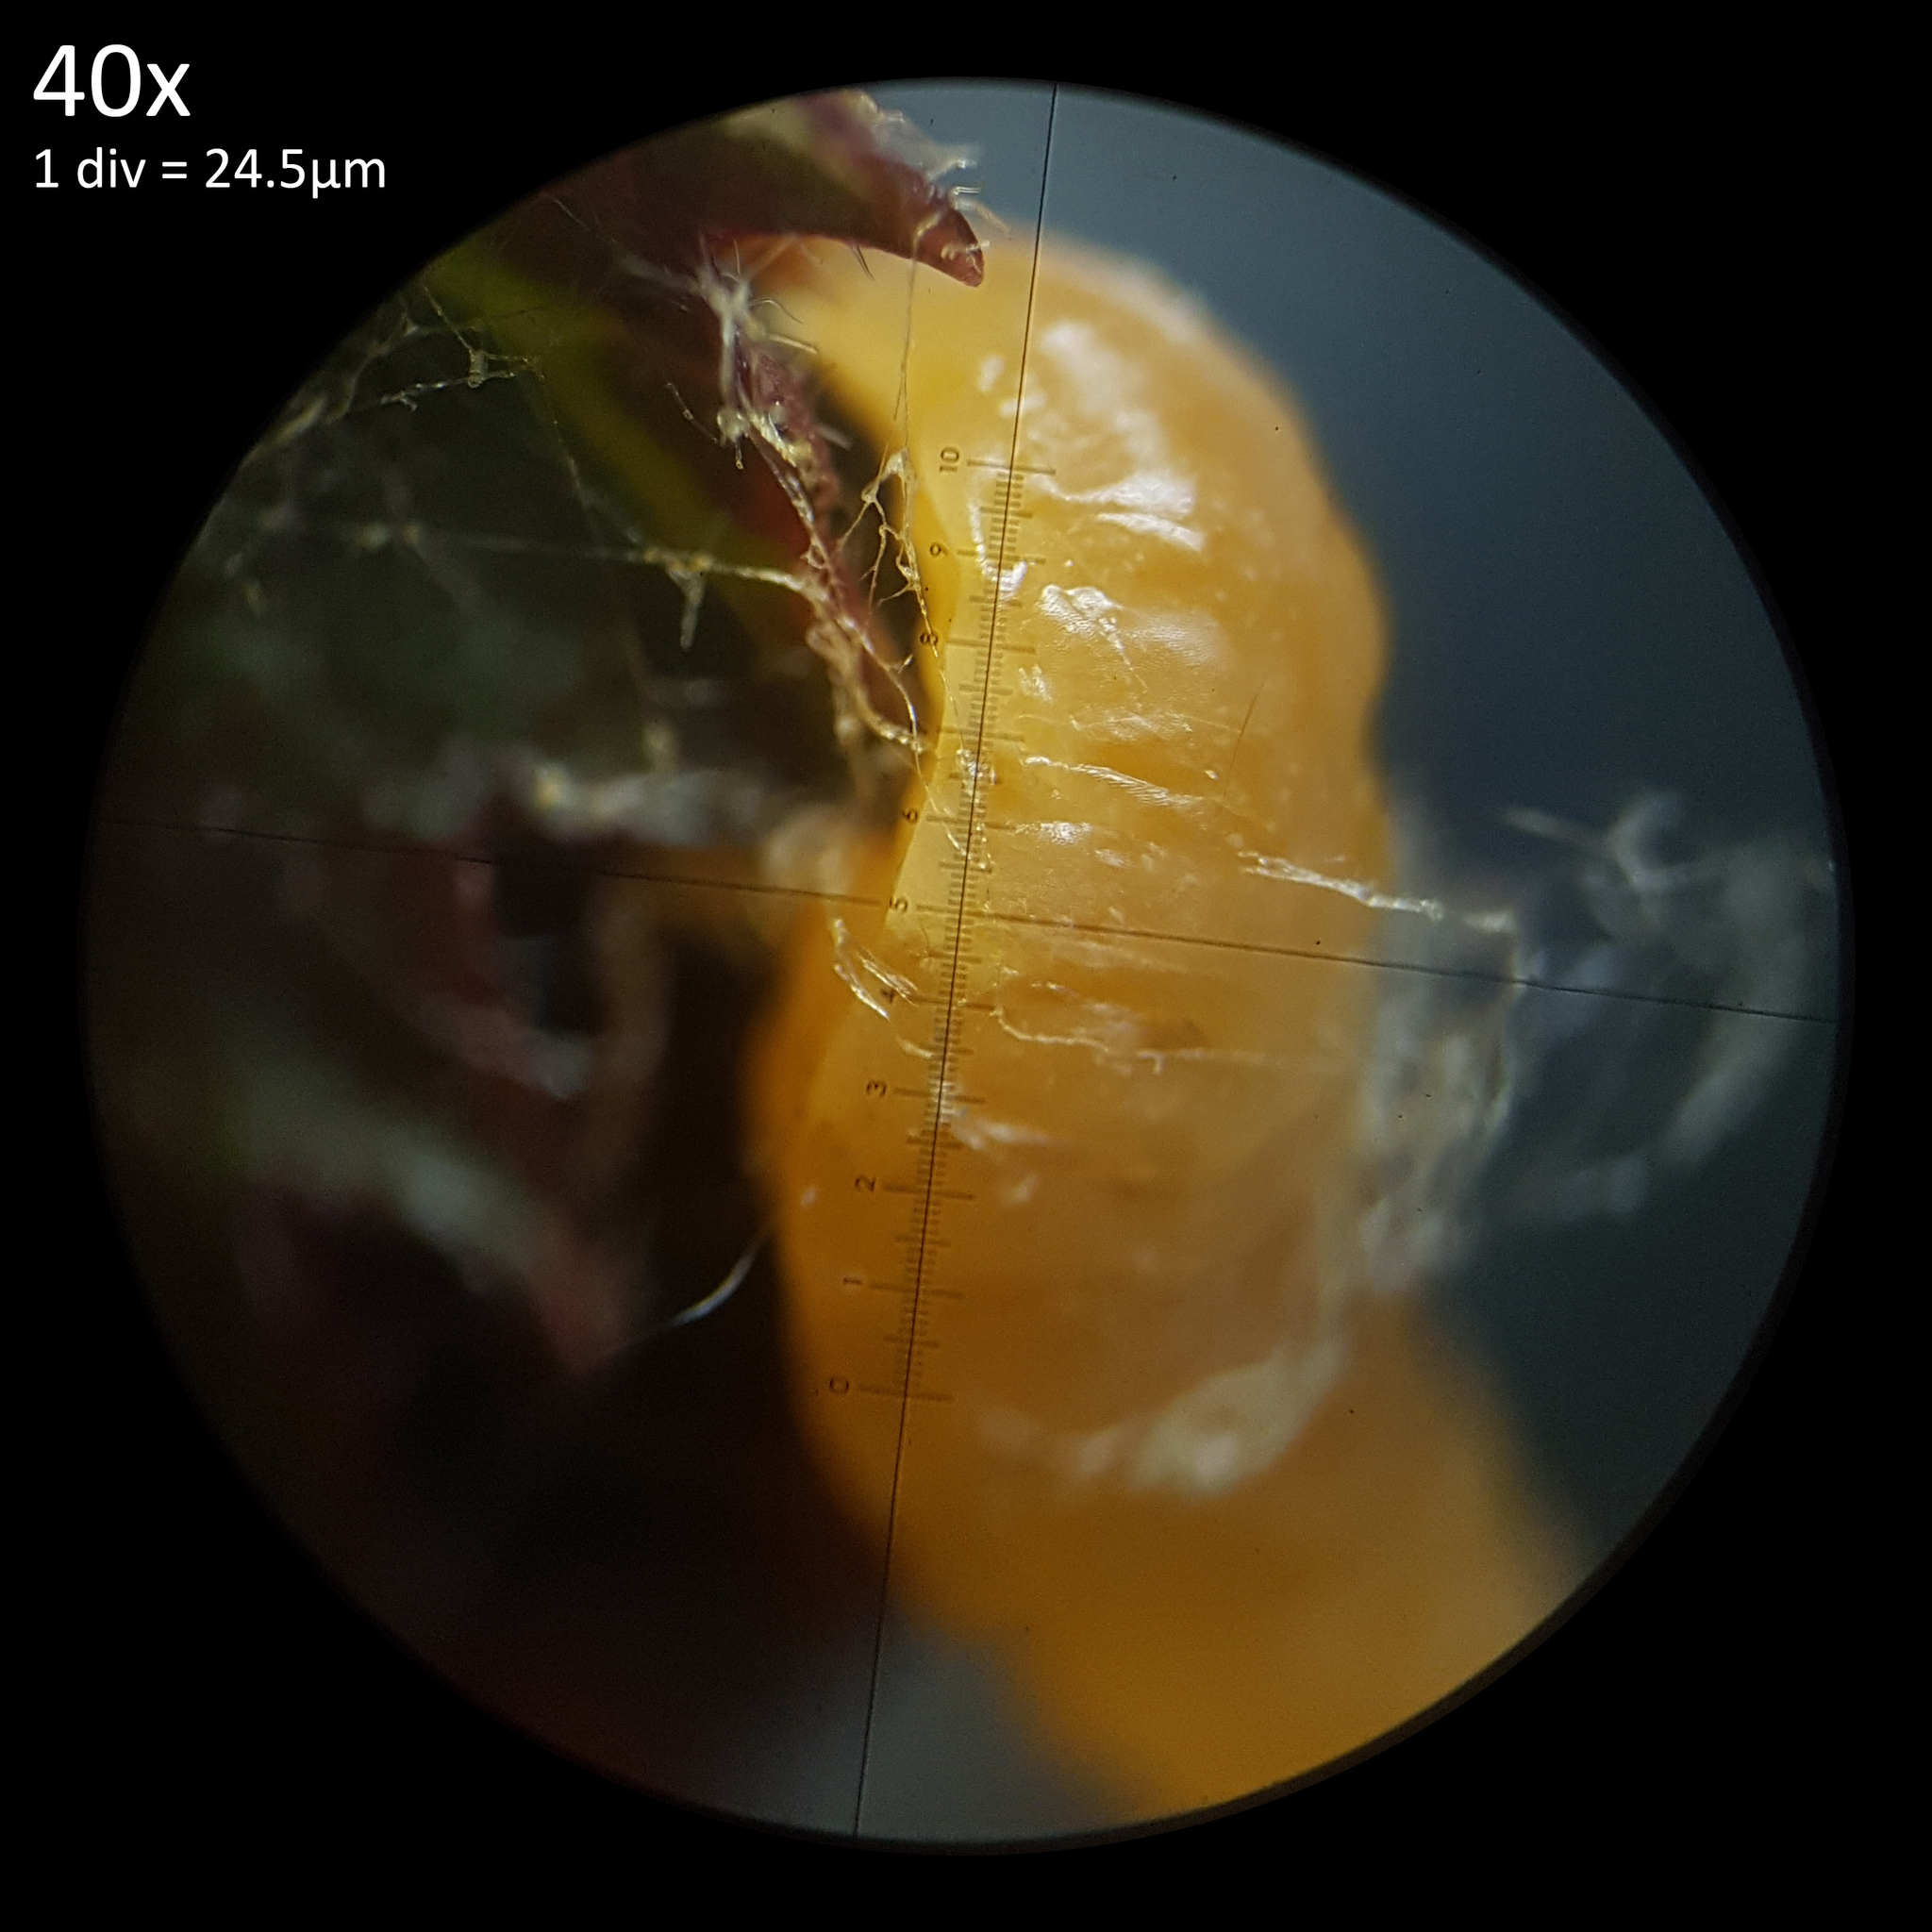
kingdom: Animalia
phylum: Arthropoda
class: Insecta
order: Hymenoptera
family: Braconidae
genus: Dinocampus
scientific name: Dinocampus coccinellae
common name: Braconid wasp
